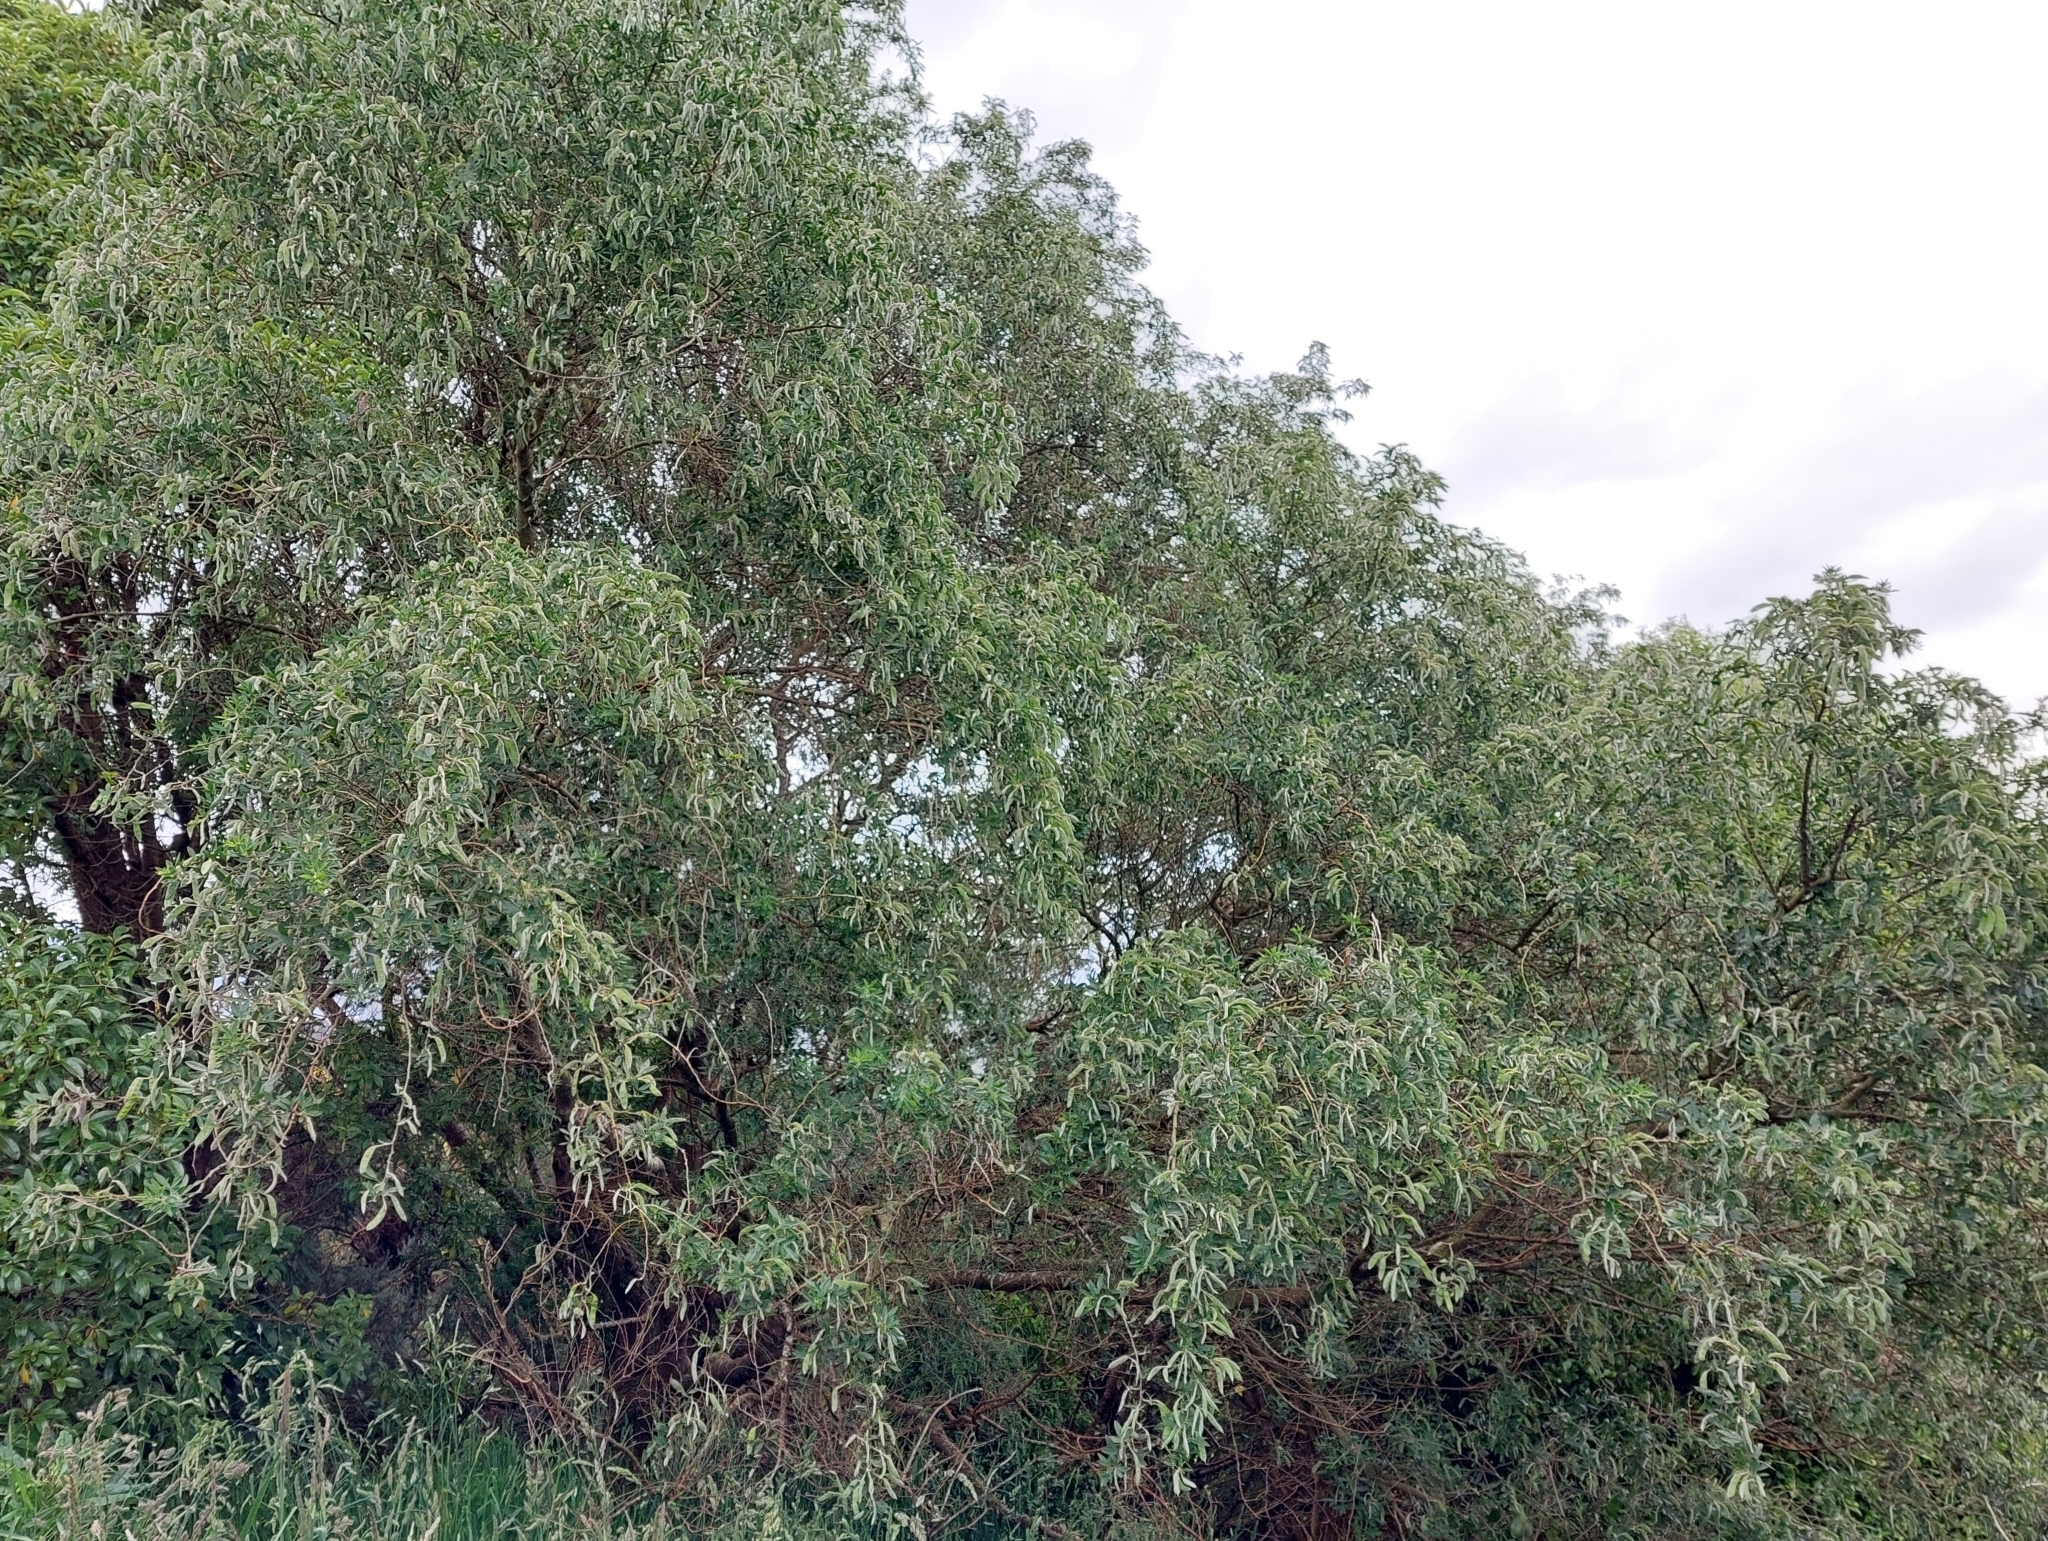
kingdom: Plantae
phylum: Tracheophyta
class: Magnoliopsida
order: Fabales
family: Fabaceae
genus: Chamaecytisus
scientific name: Chamaecytisus prolifer
